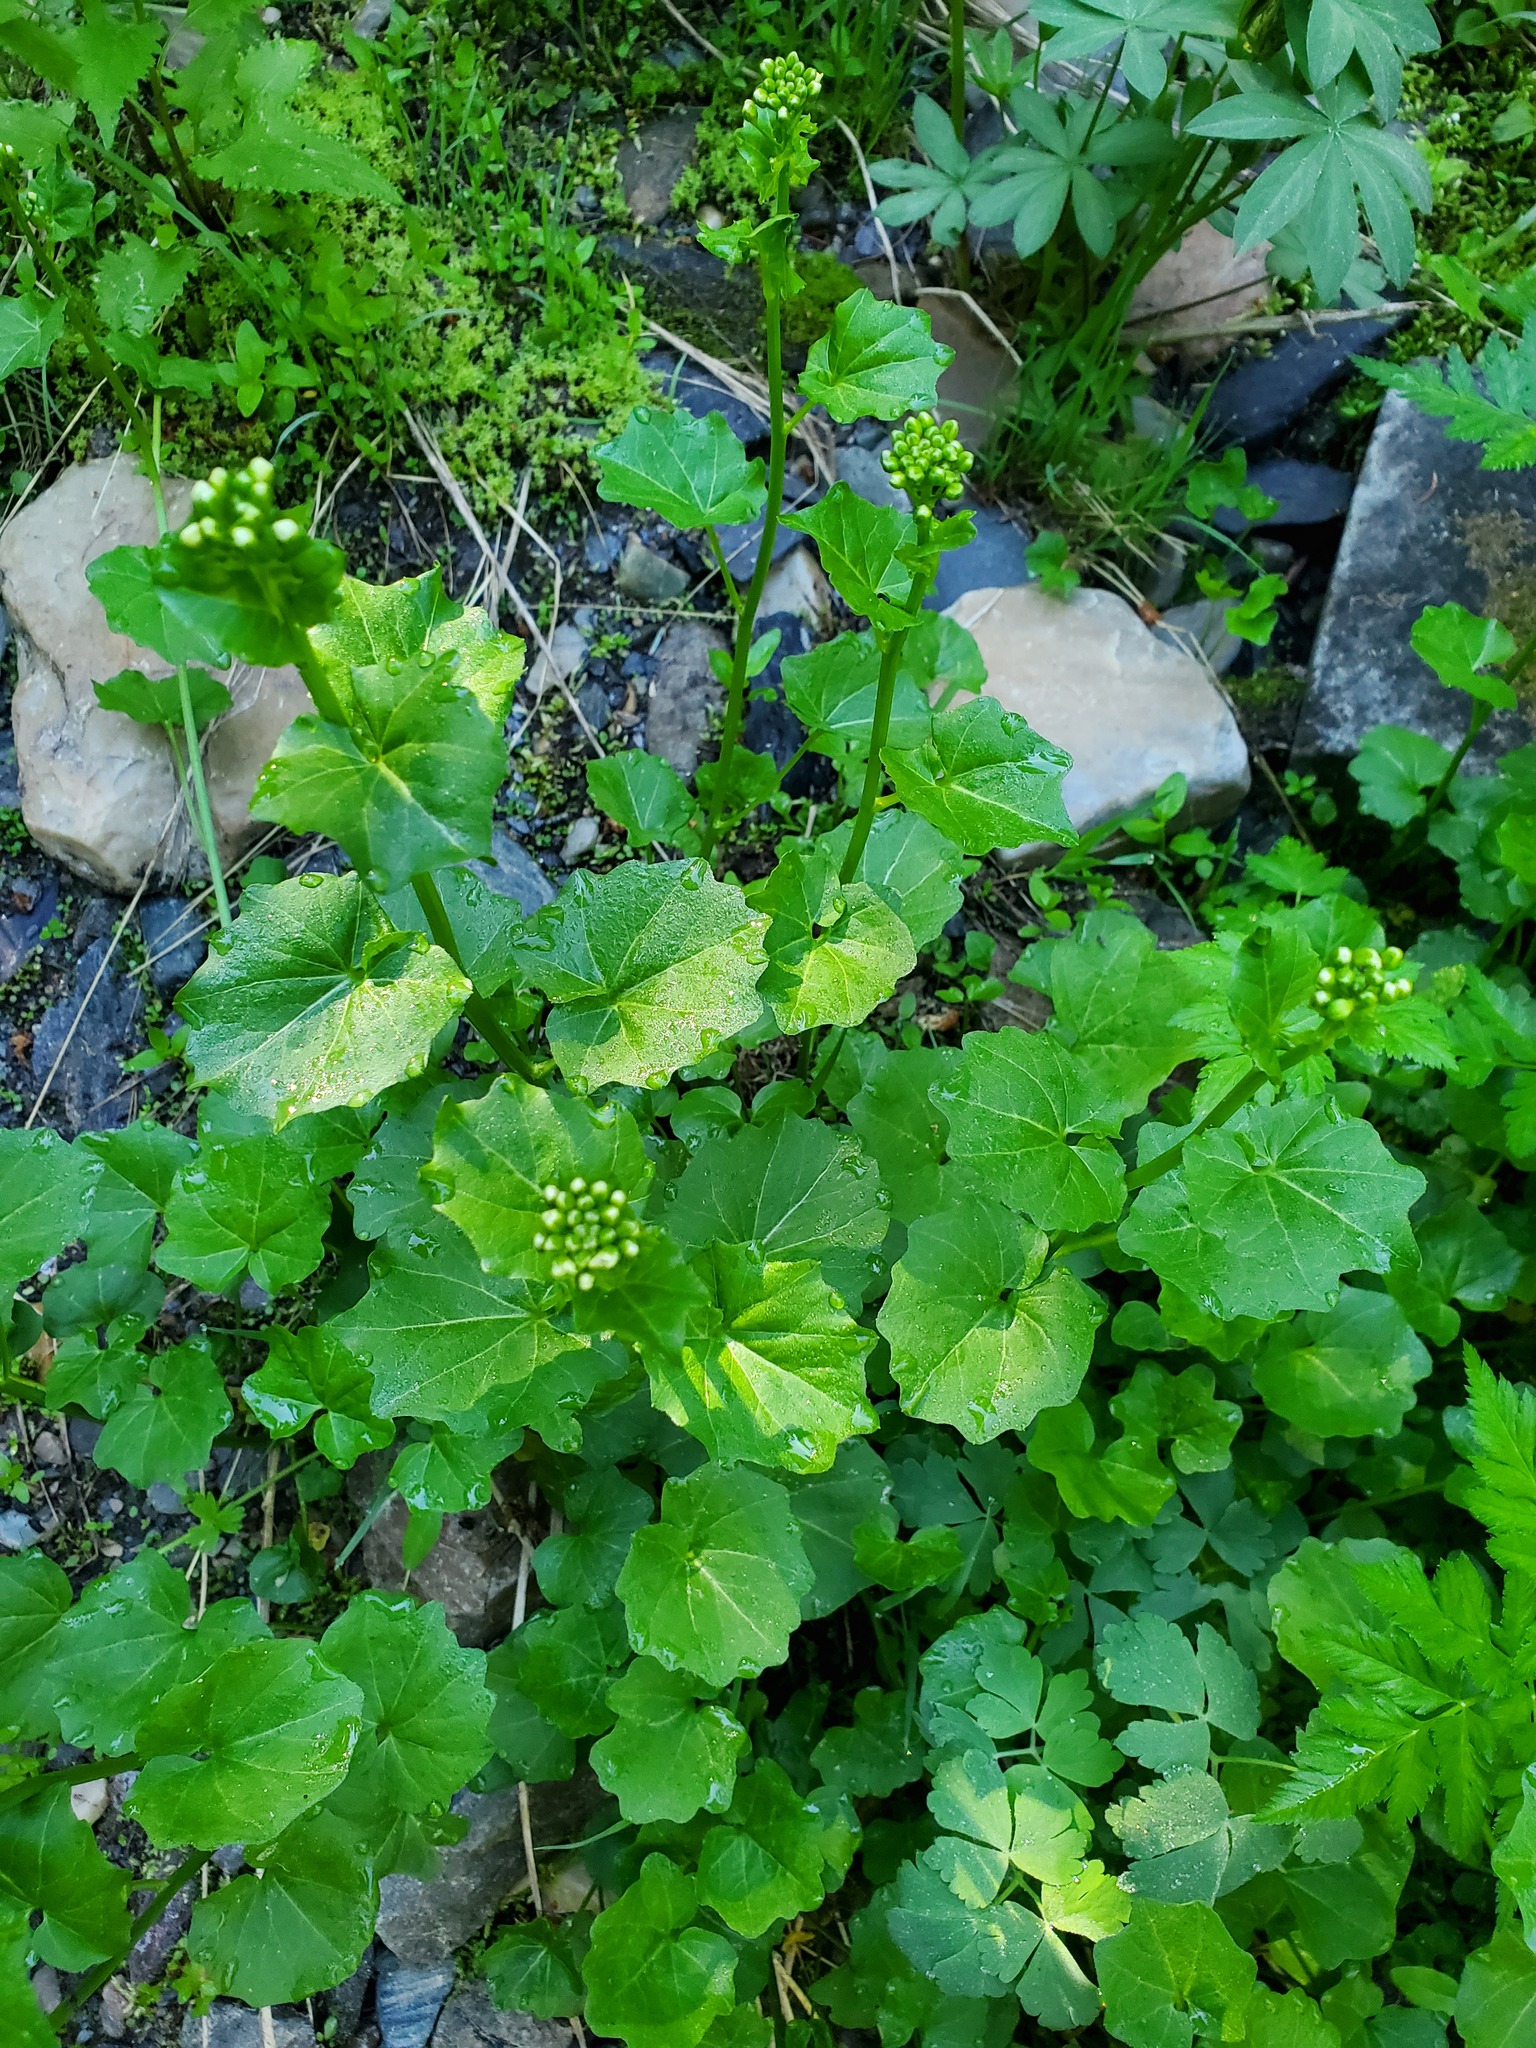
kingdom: Plantae
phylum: Tracheophyta
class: Magnoliopsida
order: Brassicales
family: Brassicaceae
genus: Cardamine
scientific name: Cardamine cordifolia
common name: Heart-leaf bittercress
